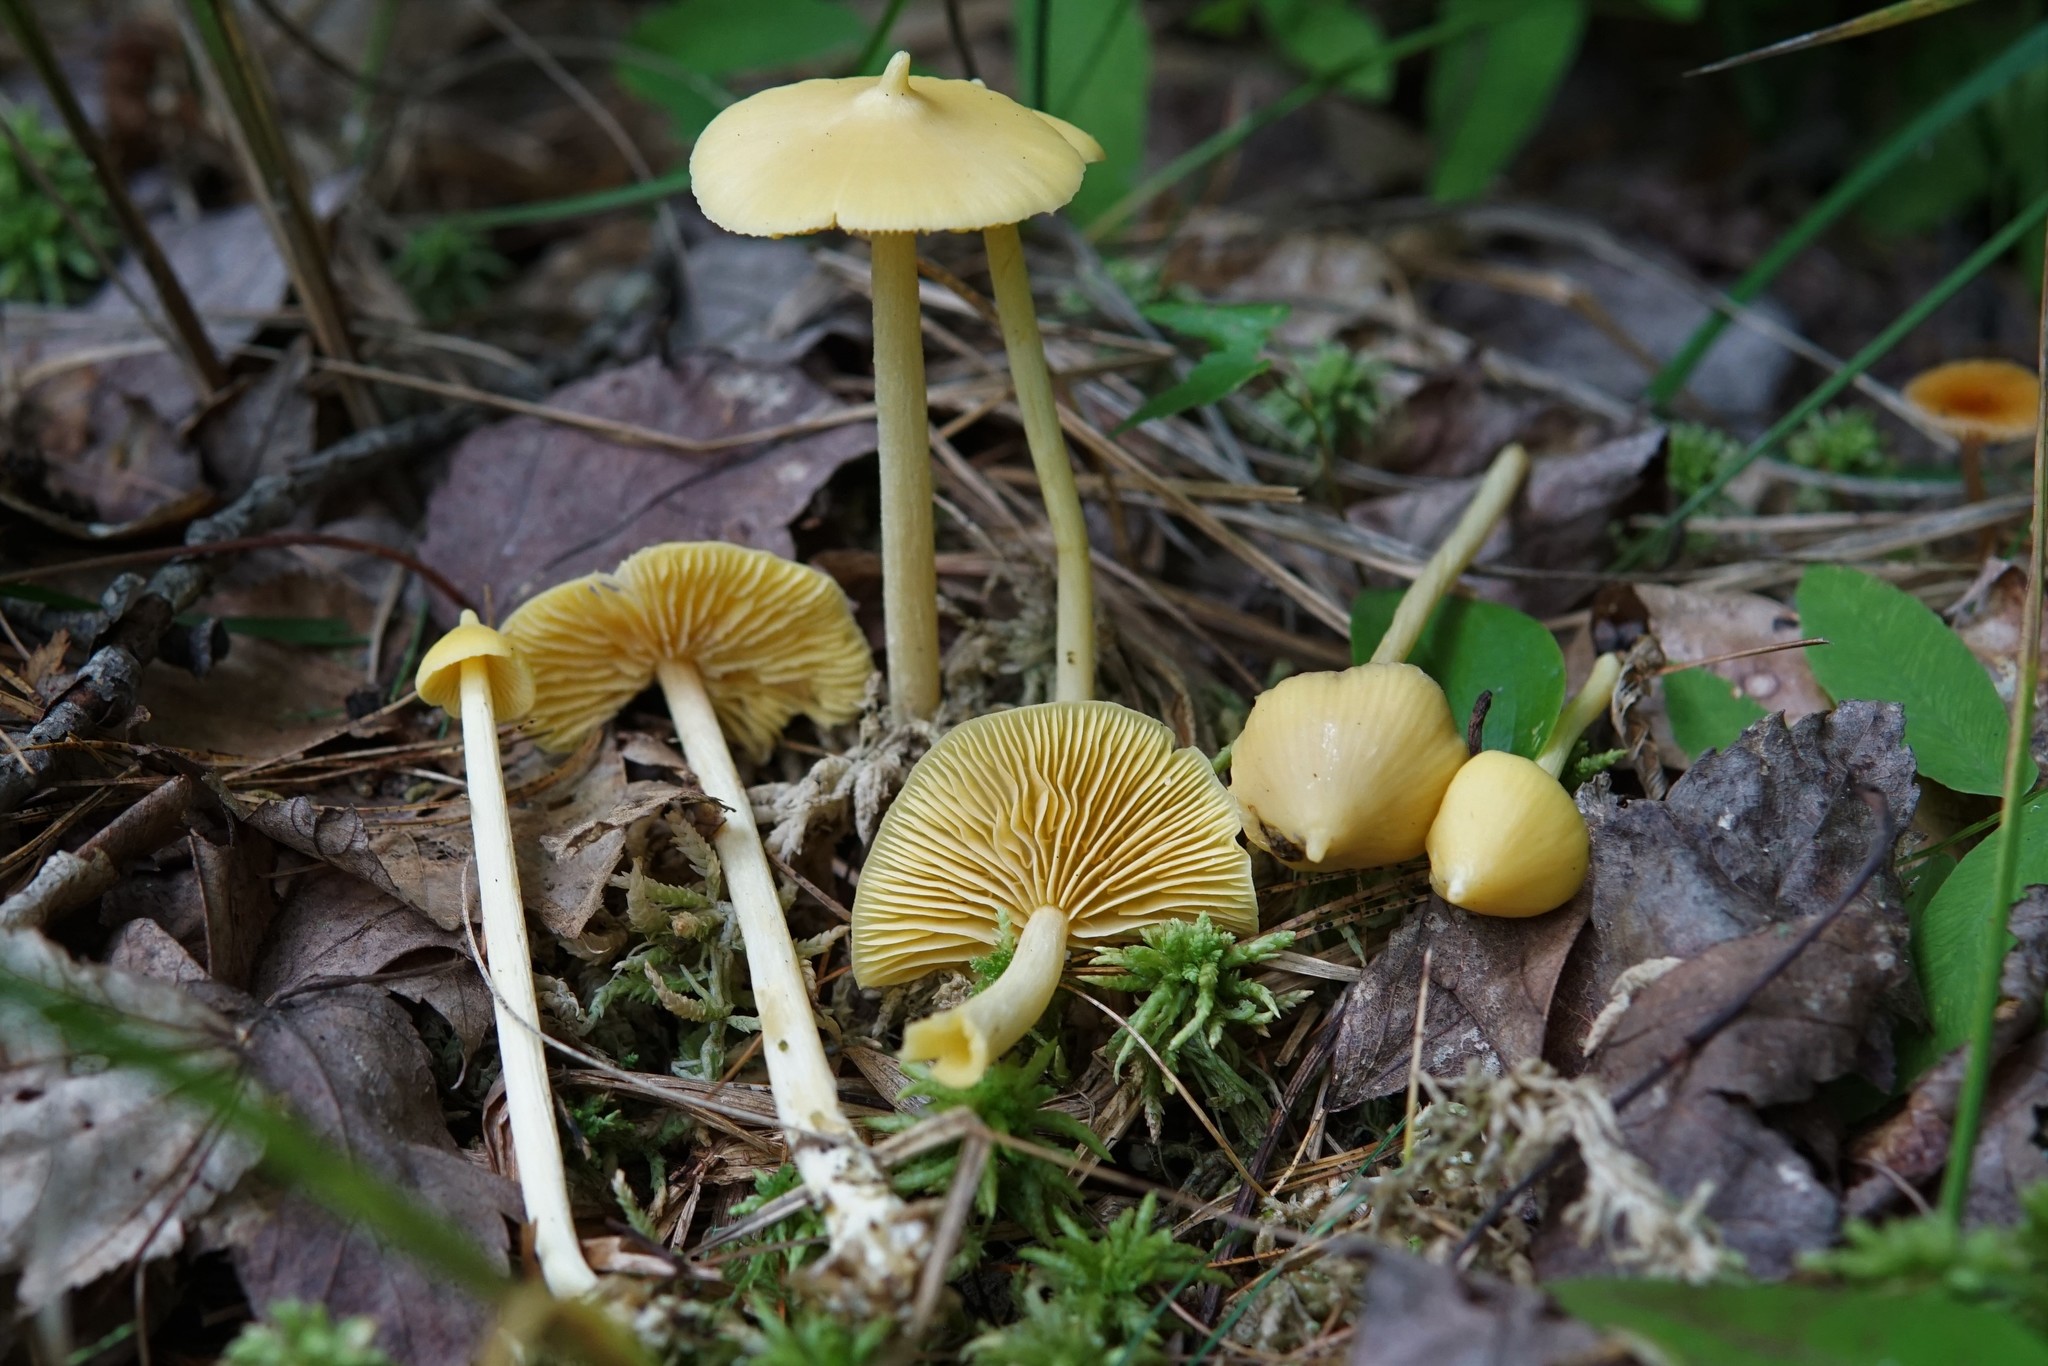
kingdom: Fungi
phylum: Basidiomycota
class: Agaricomycetes
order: Agaricales
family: Entolomataceae
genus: Entoloma
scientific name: Entoloma murrayi
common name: Yellow unicorn entoloma
